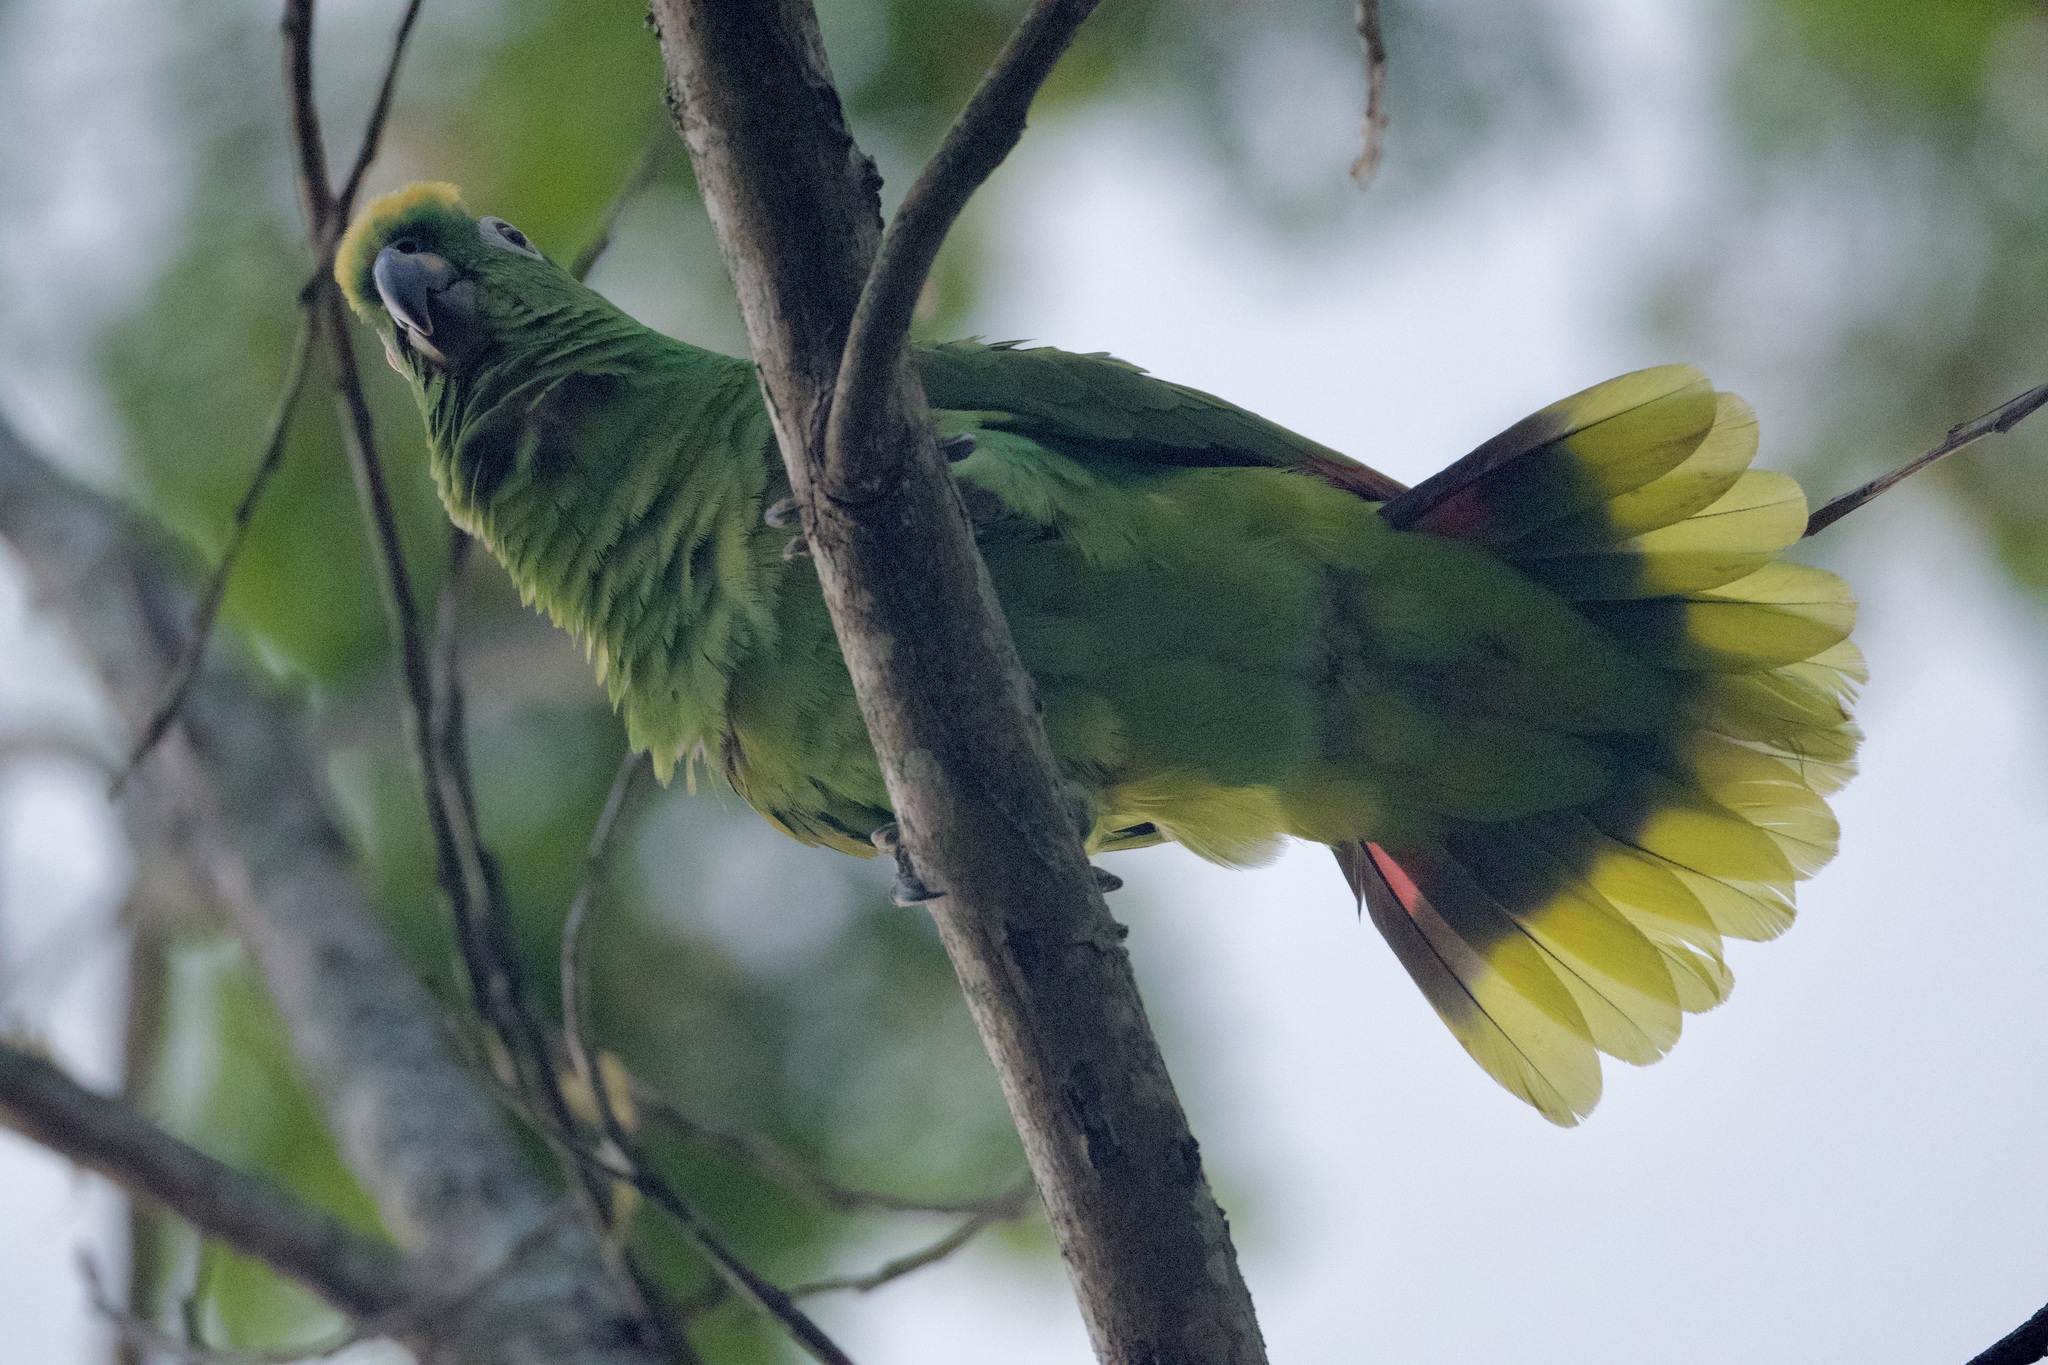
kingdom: Animalia
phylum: Chordata
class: Aves
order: Psittaciformes
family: Psittacidae
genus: Amazona
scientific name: Amazona ochrocephala
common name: Yellow-crowned amazon
